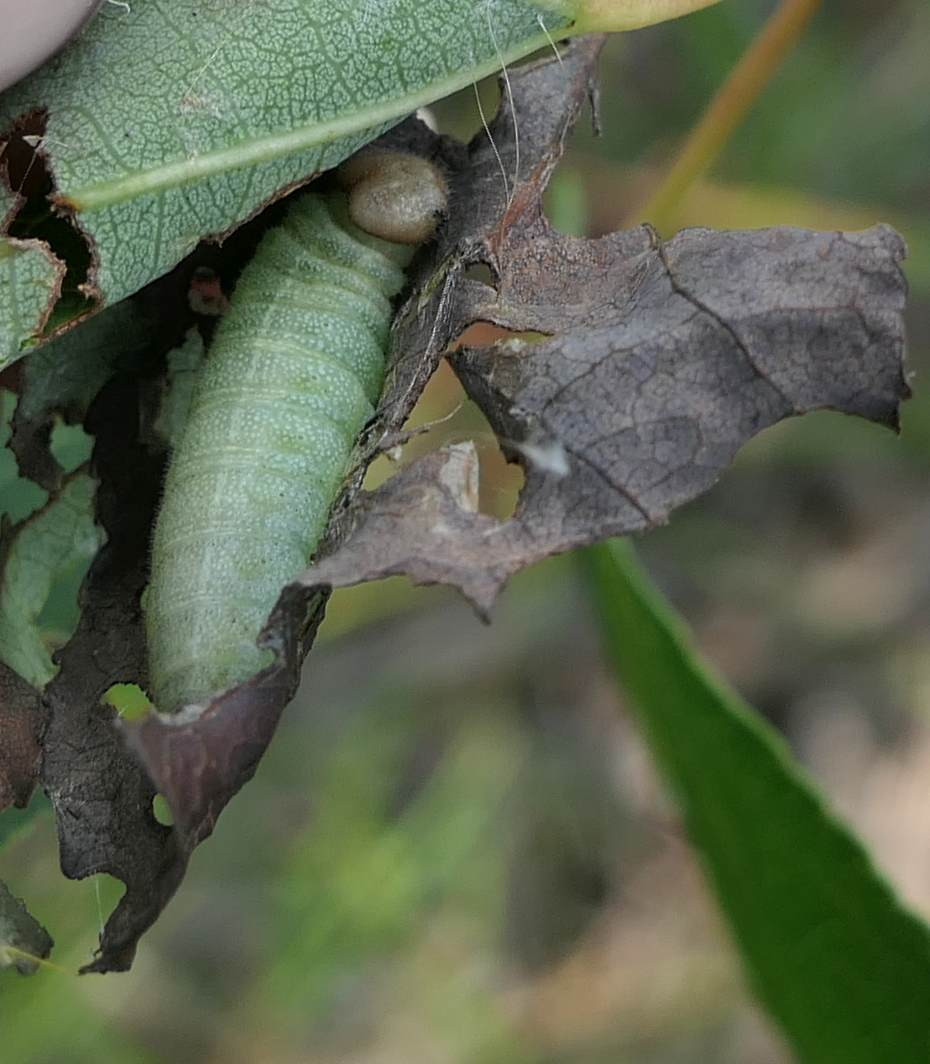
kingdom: Animalia
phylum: Arthropoda
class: Insecta
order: Lepidoptera
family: Hesperiidae
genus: Erynnis
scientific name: Erynnis icelus
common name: Dreamy duskywing
